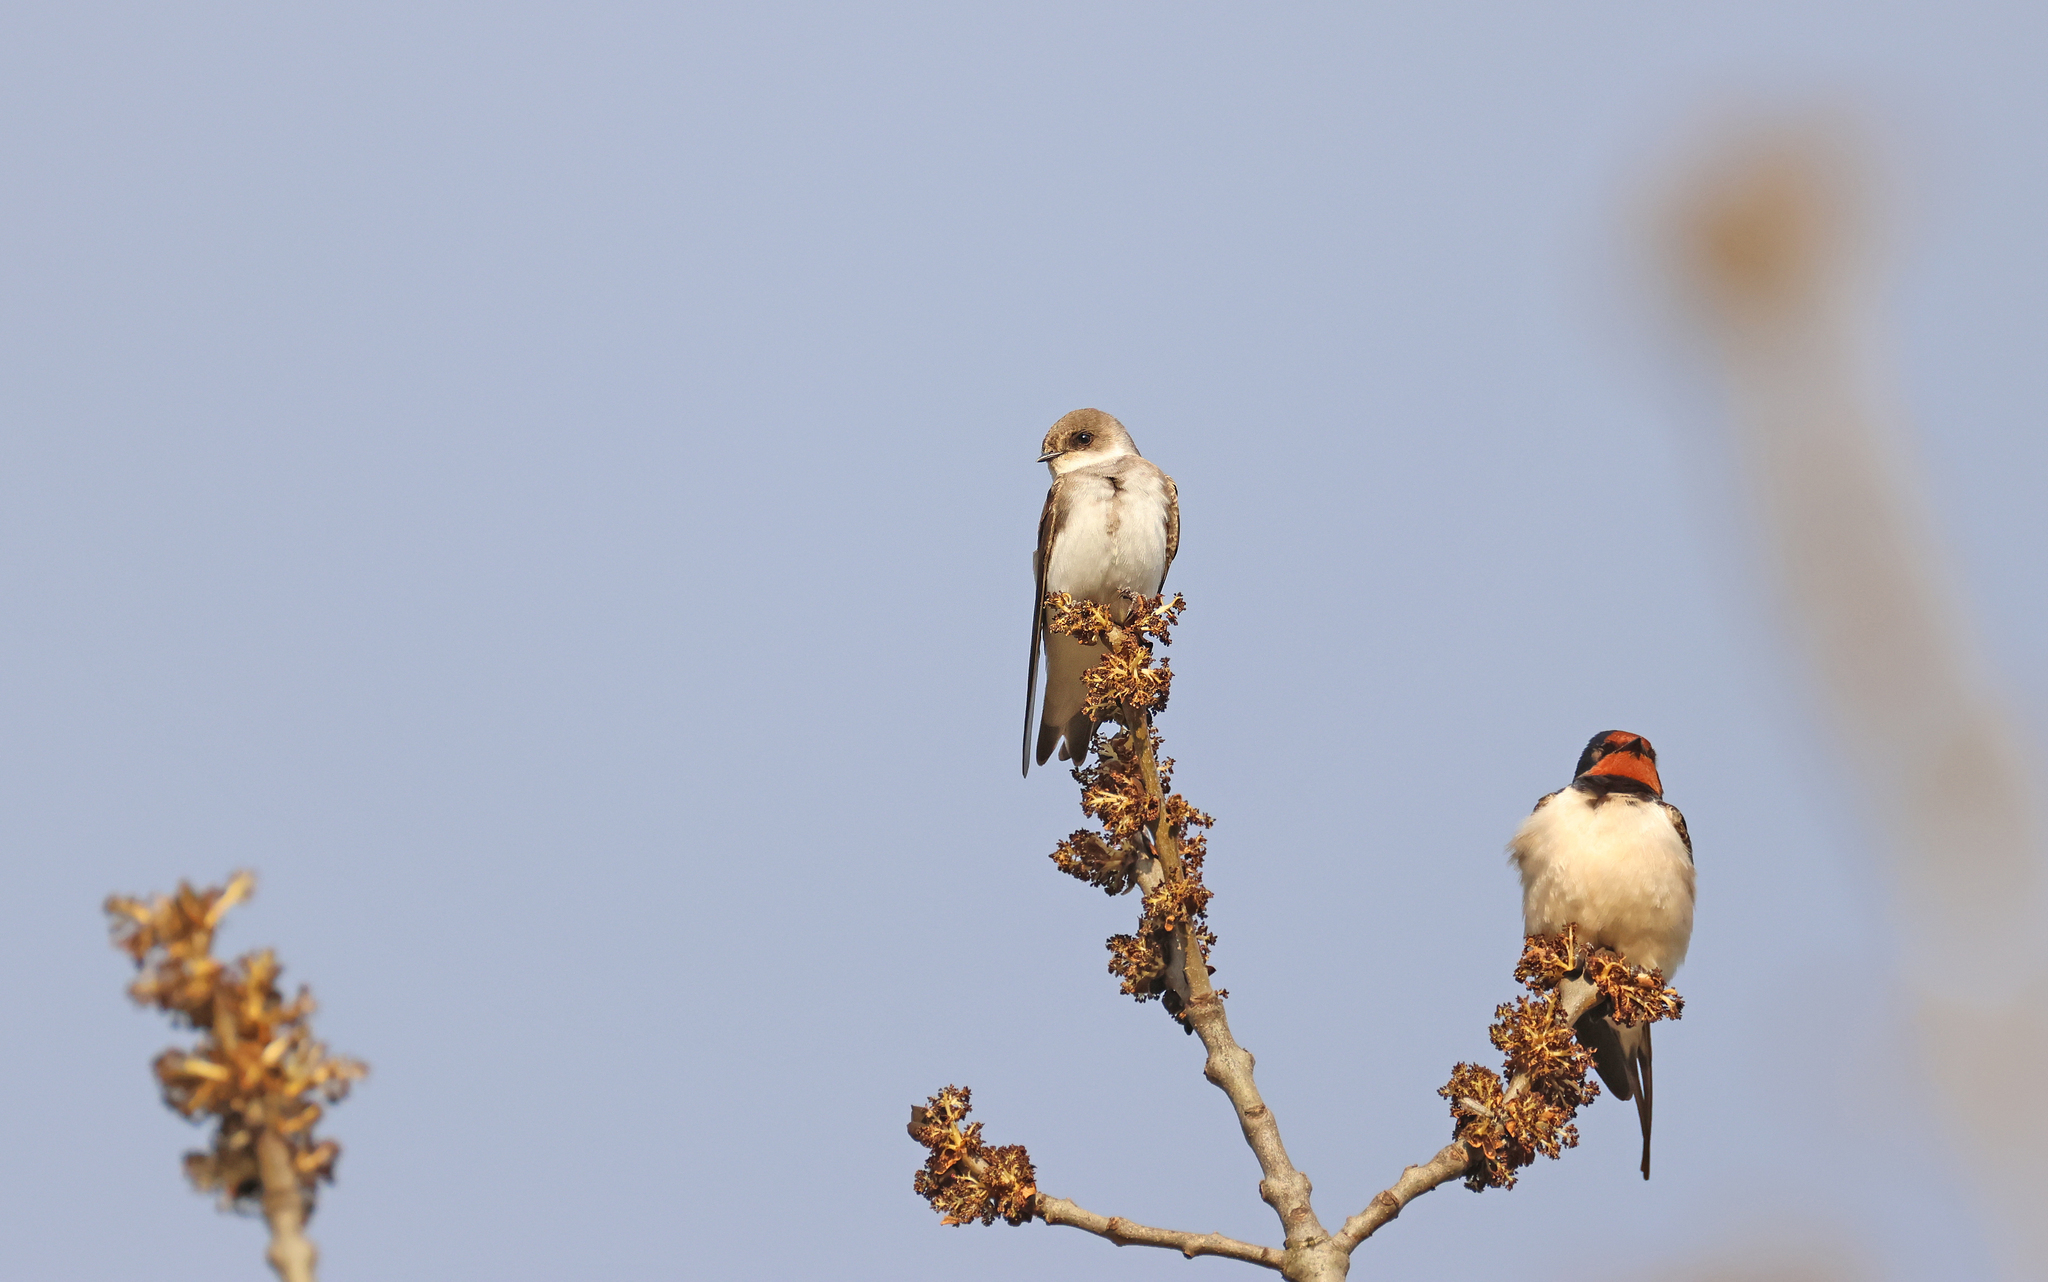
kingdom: Animalia
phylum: Chordata
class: Aves
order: Passeriformes
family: Hirundinidae
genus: Riparia
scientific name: Riparia riparia
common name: Sand martin
